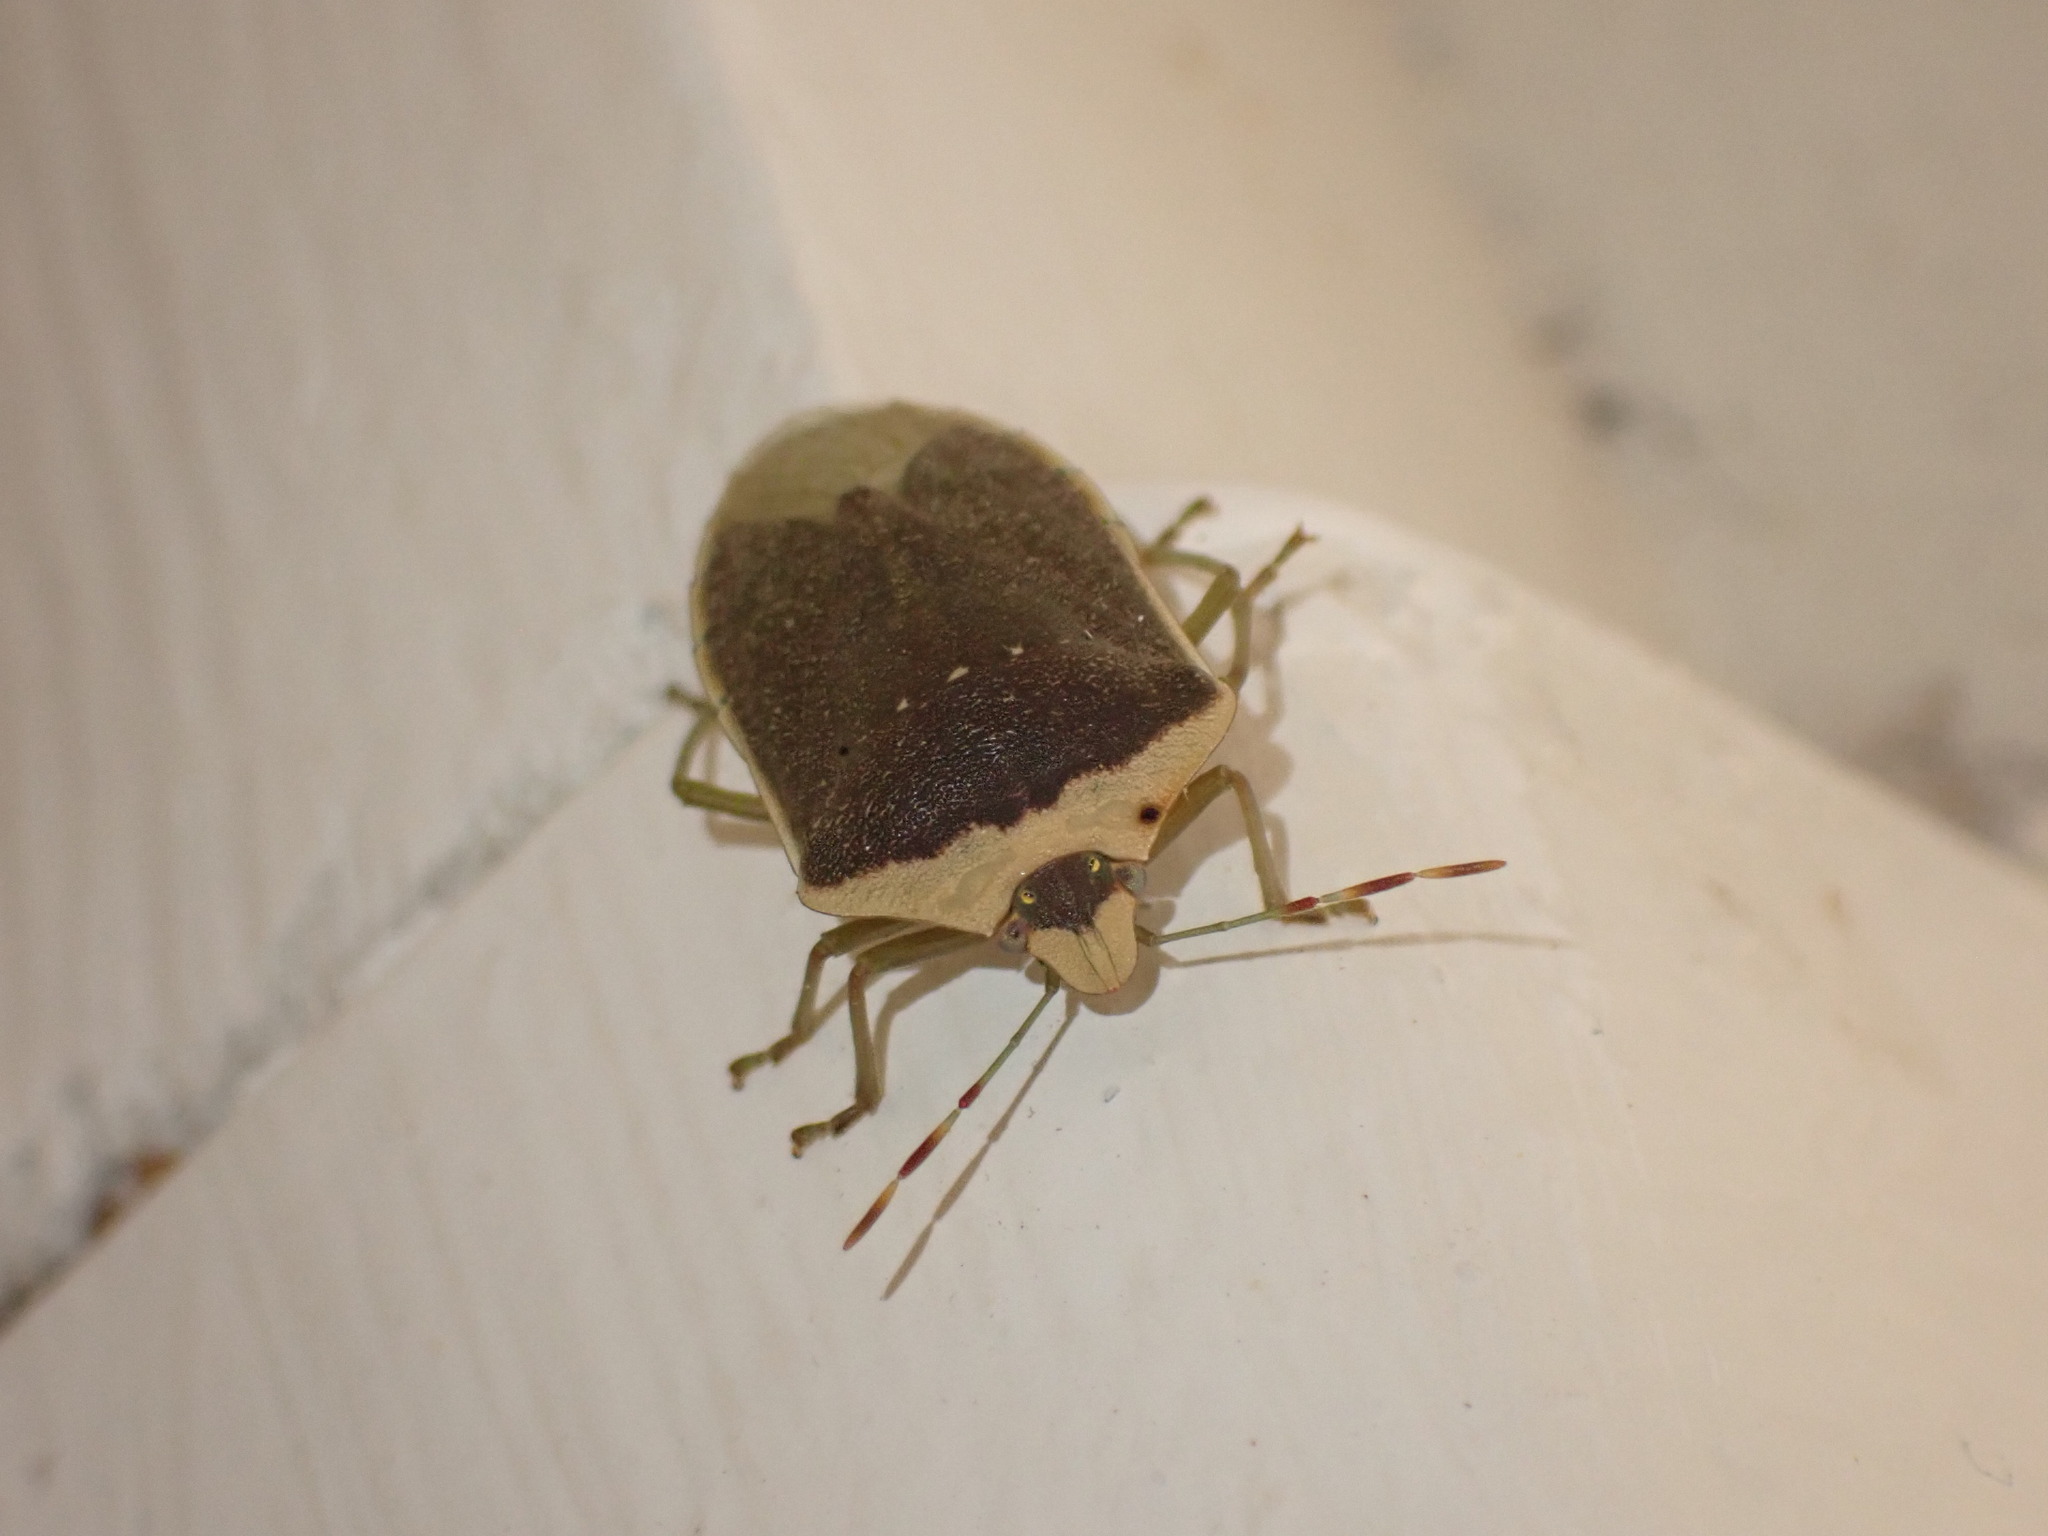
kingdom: Animalia
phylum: Arthropoda
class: Insecta
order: Hemiptera
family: Pentatomidae
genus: Nezara
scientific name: Nezara viridula
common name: Southern green stink bug
